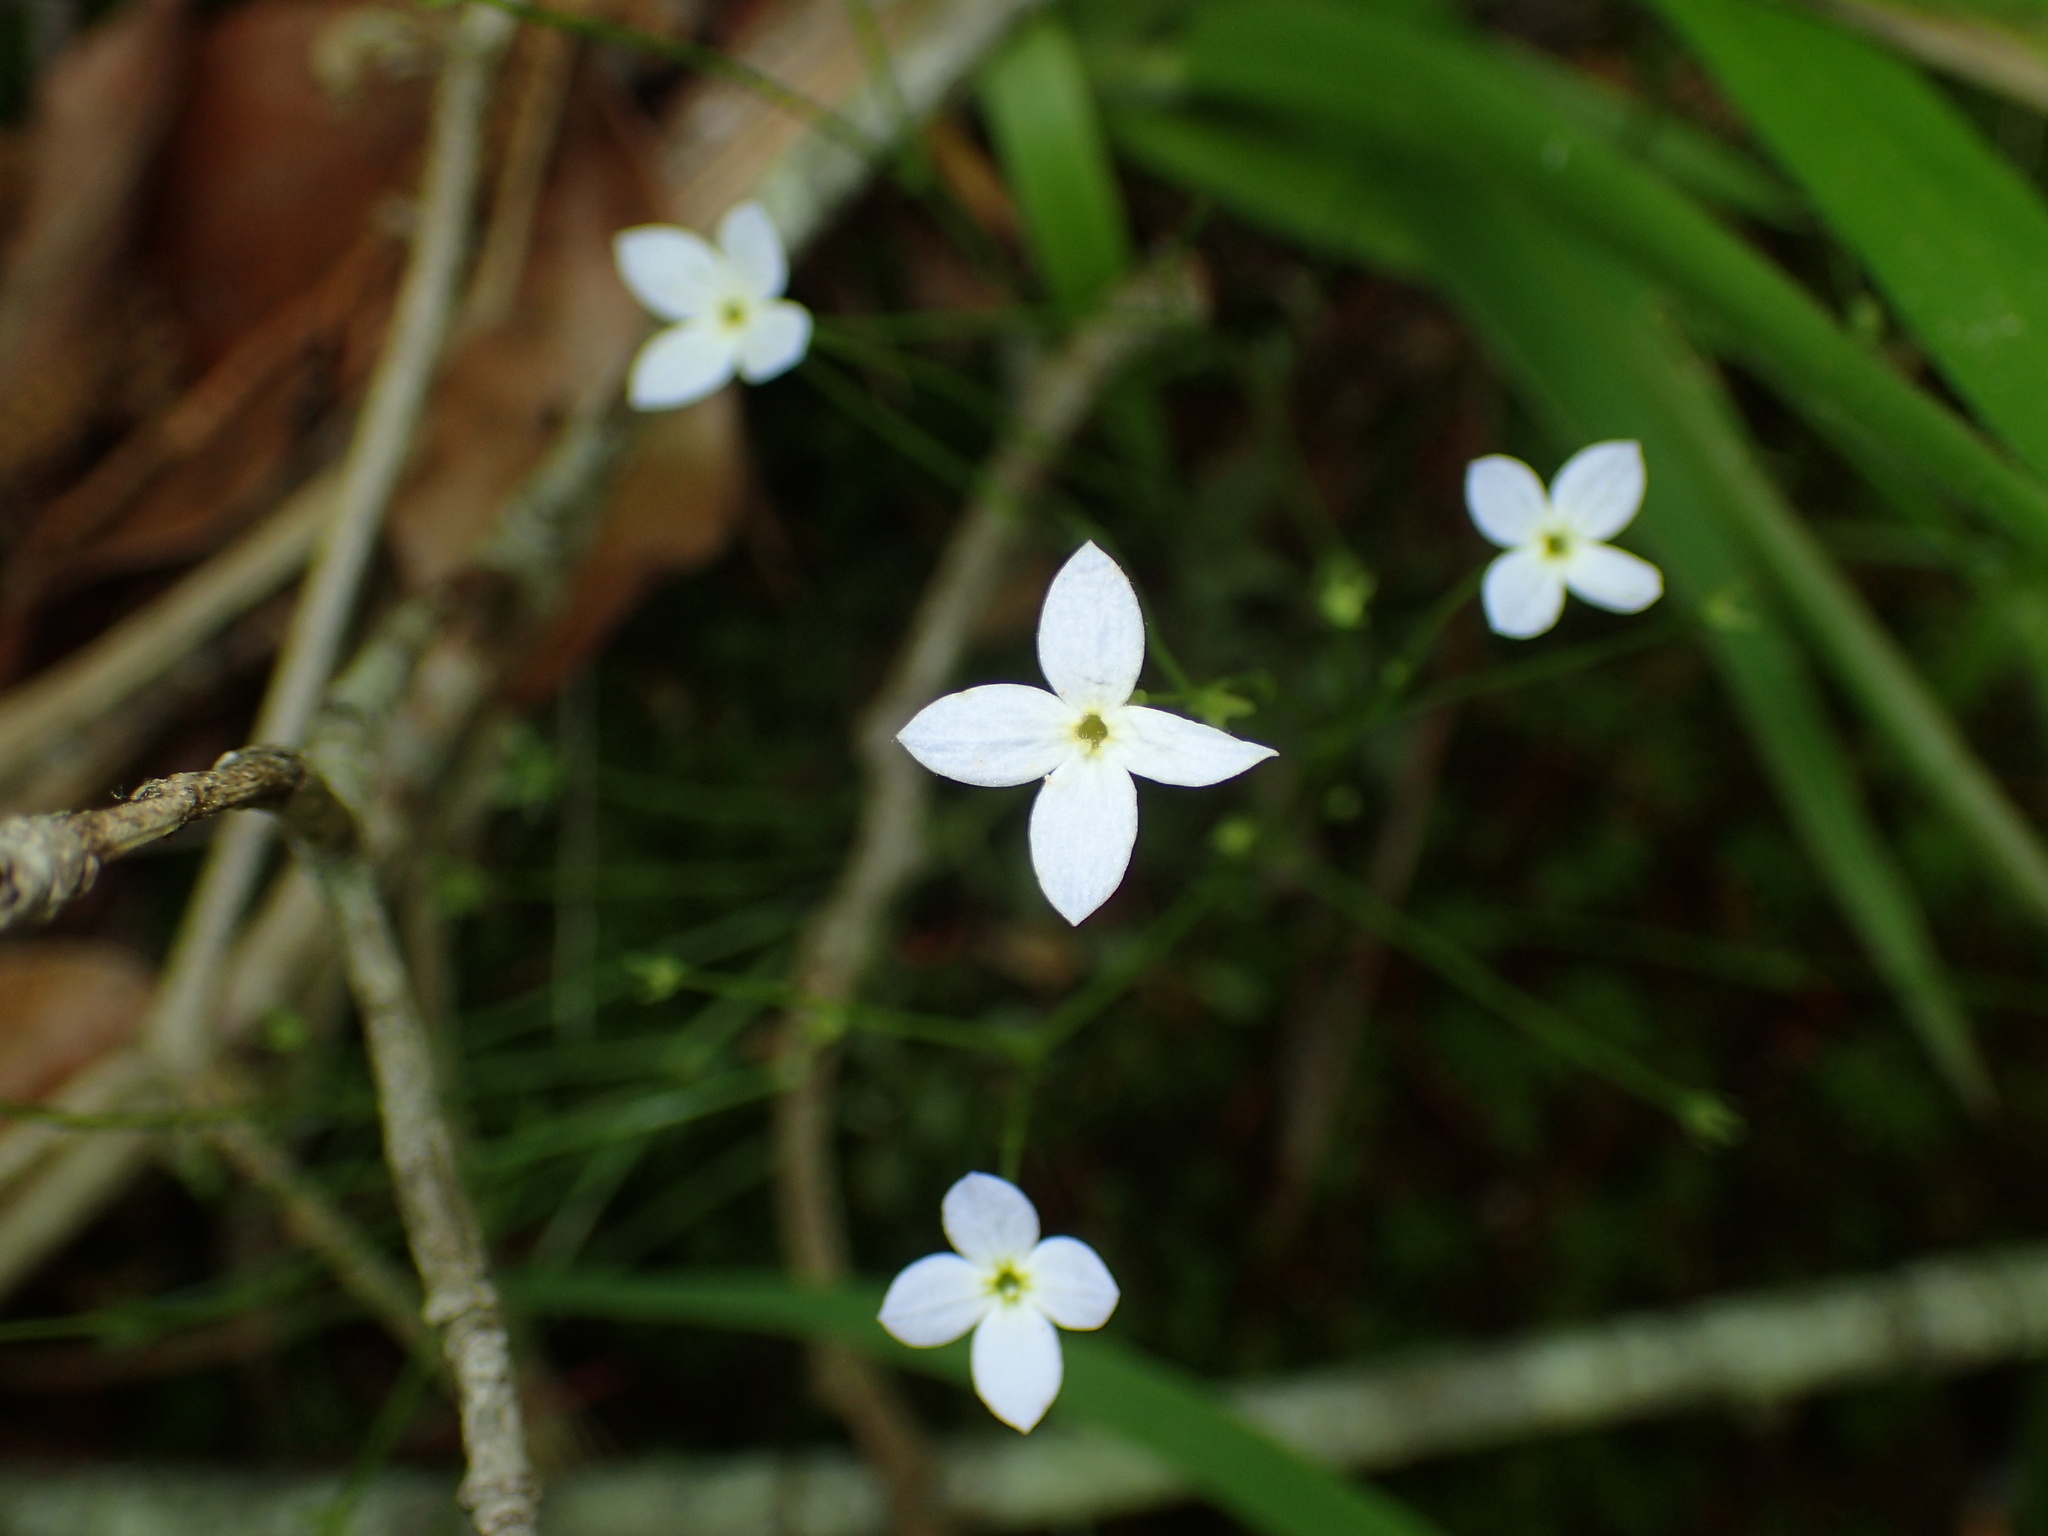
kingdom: Plantae
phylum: Tracheophyta
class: Magnoliopsida
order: Gentianales
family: Rubiaceae
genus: Houstonia
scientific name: Houstonia caerulea
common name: Bluets
